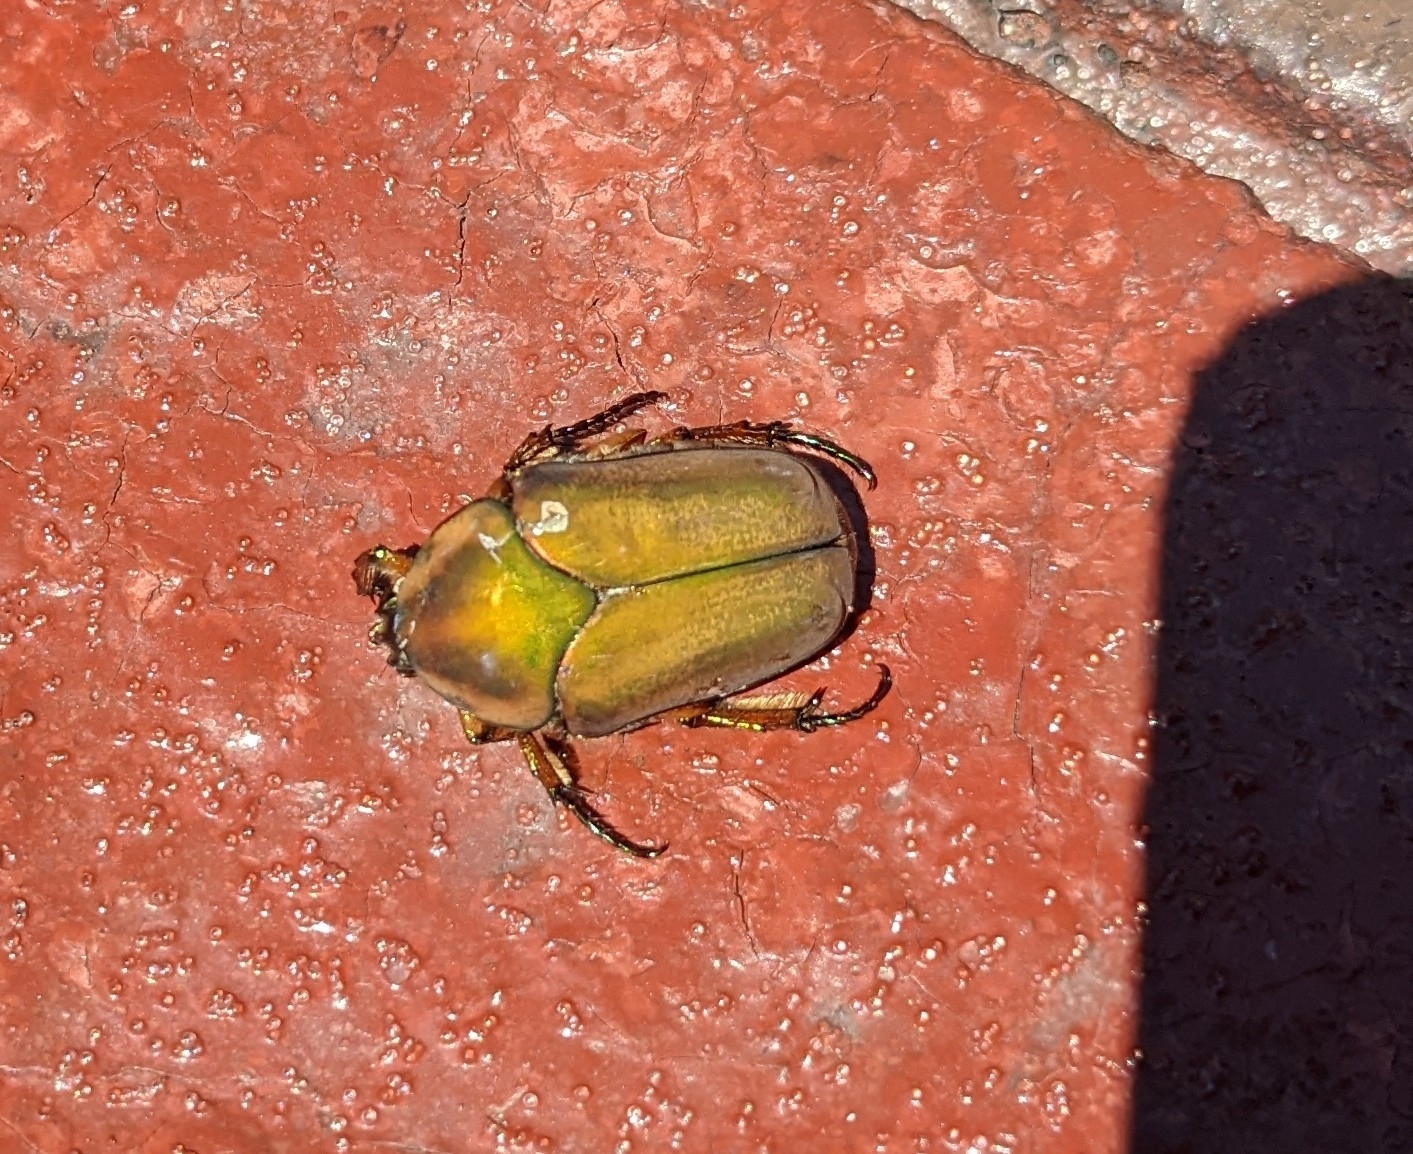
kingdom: Animalia
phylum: Arthropoda
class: Insecta
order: Coleoptera
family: Scarabaeidae
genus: Cotinis
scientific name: Cotinis nitida
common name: Common green june beetle
